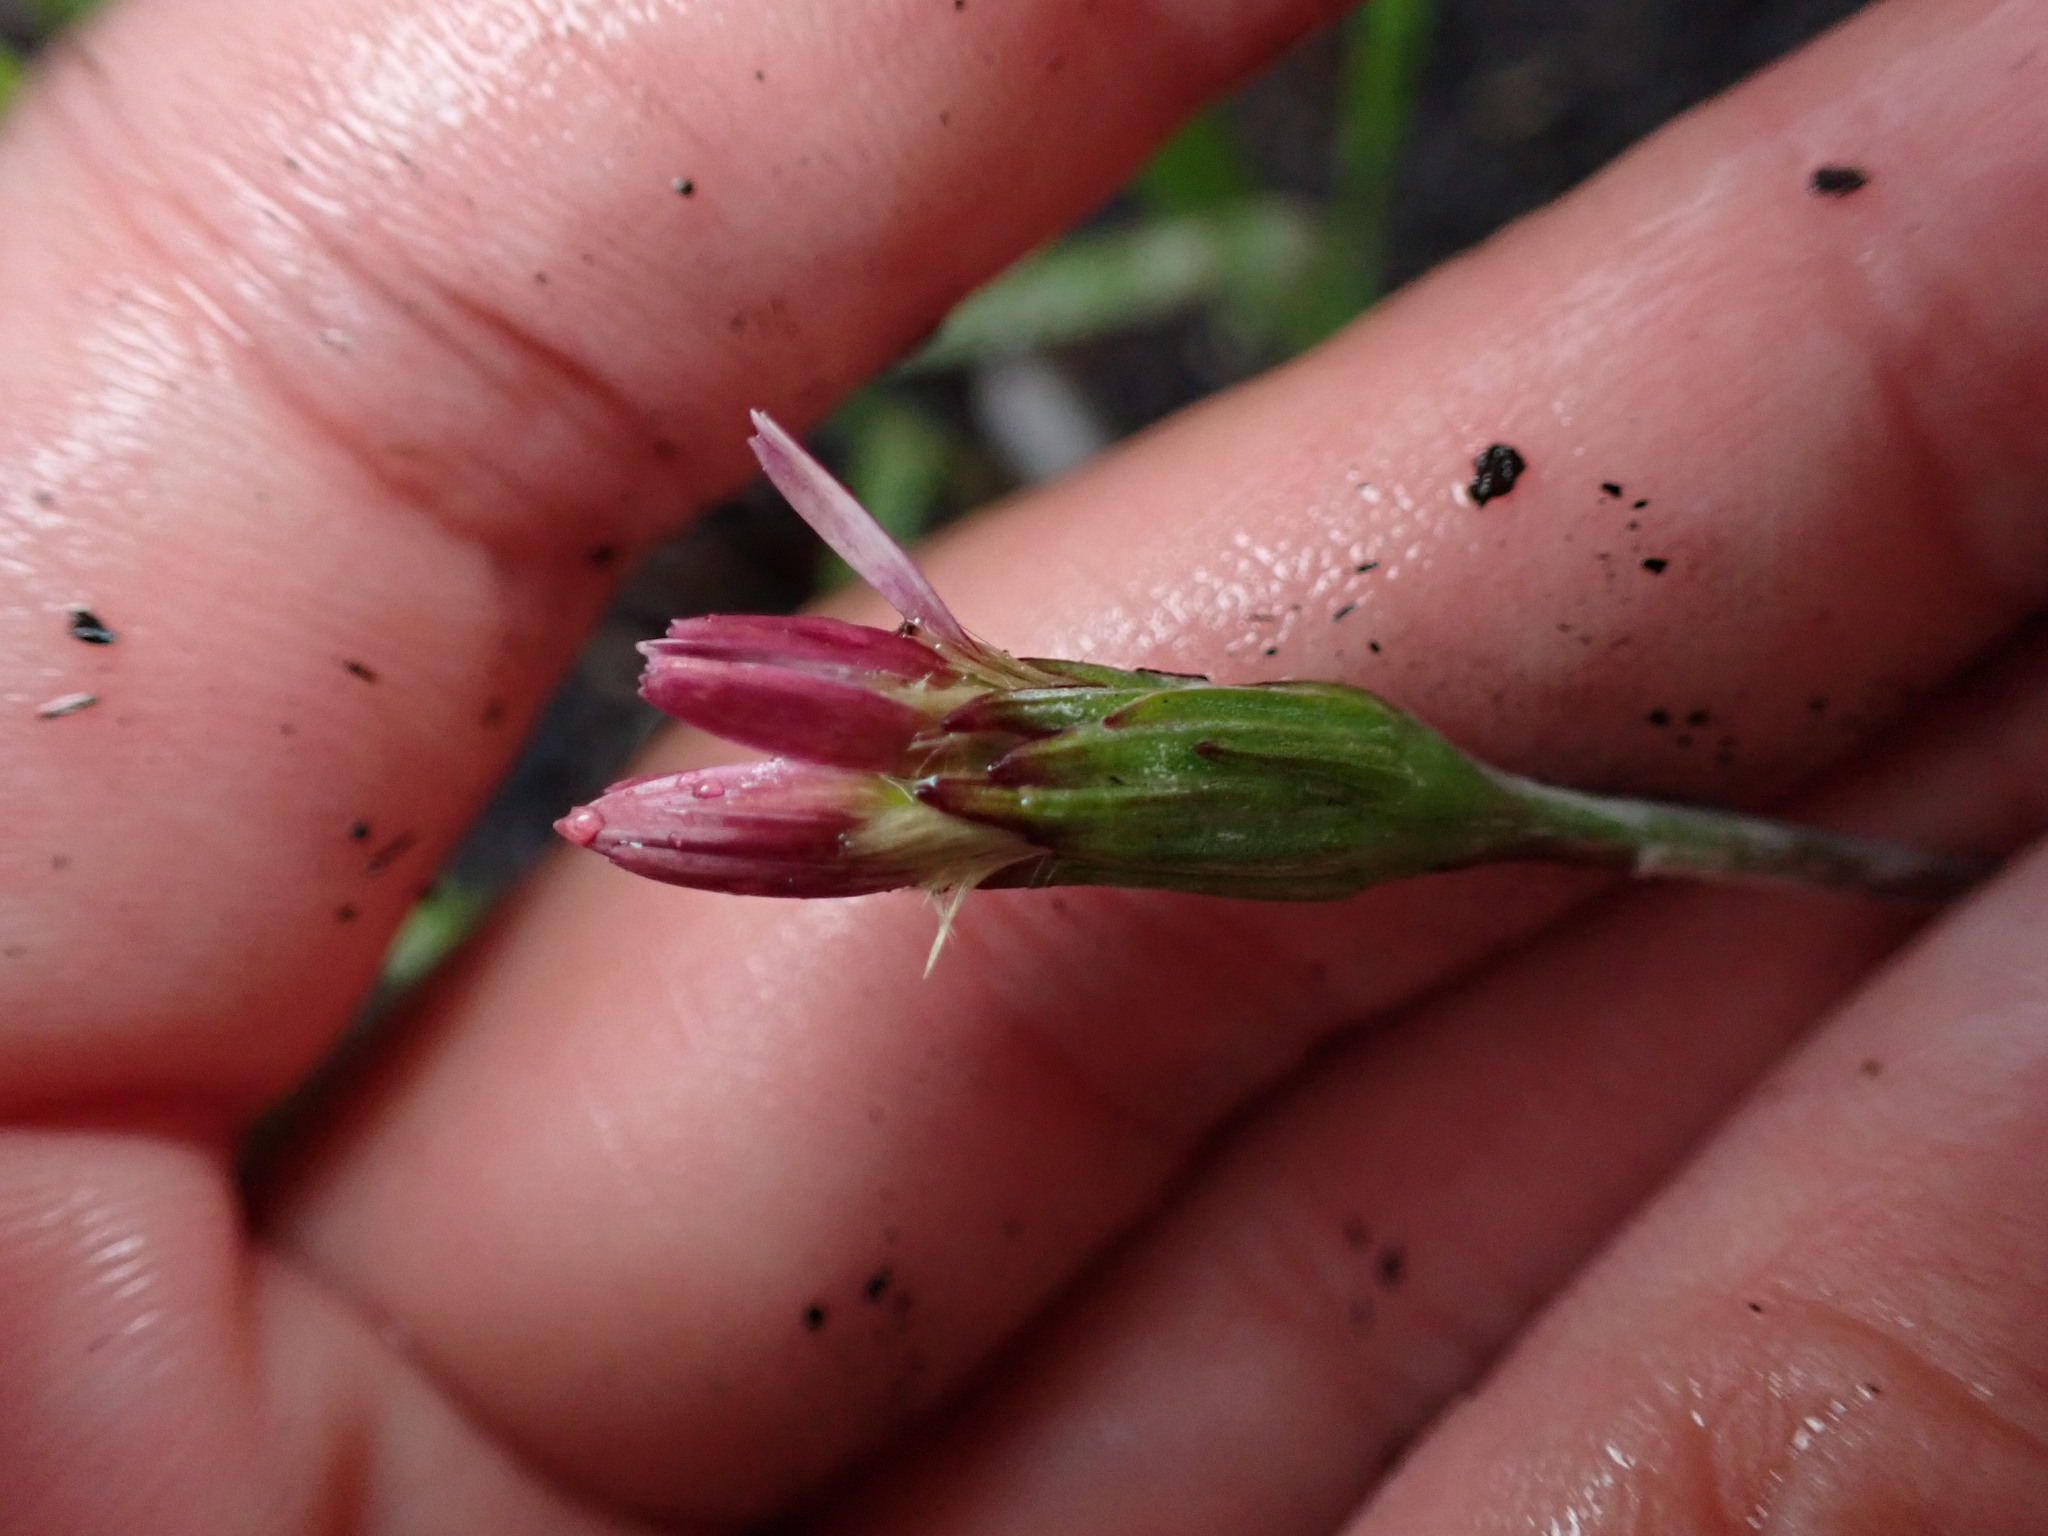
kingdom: Plantae
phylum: Tracheophyta
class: Magnoliopsida
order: Asterales
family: Asteraceae
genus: Leibnitzia
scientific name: Leibnitzia anandria
